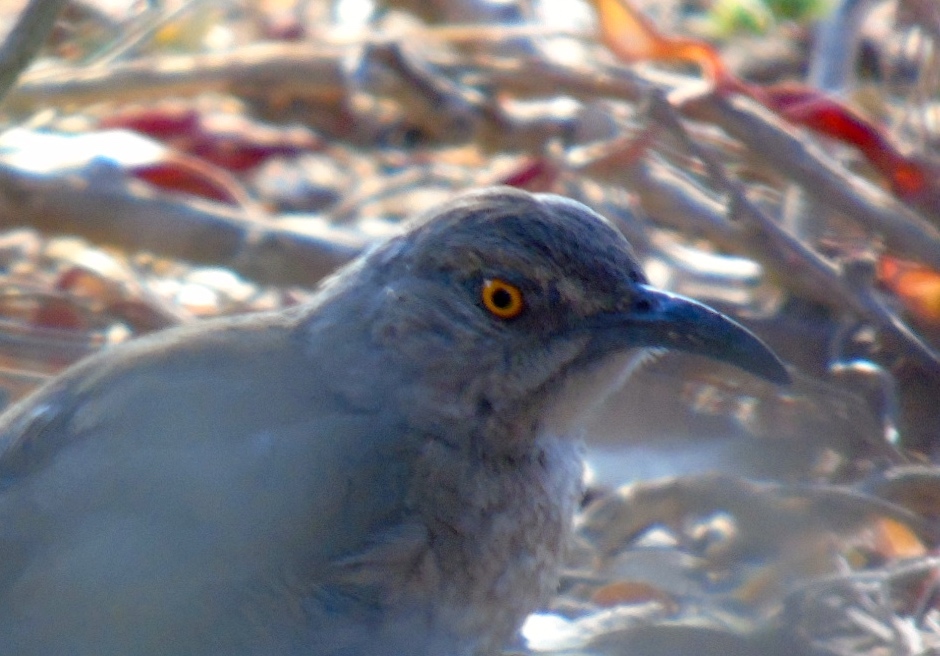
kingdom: Animalia
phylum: Chordata
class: Aves
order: Passeriformes
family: Mimidae
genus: Toxostoma
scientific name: Toxostoma curvirostre
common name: Curve-billed thrasher
